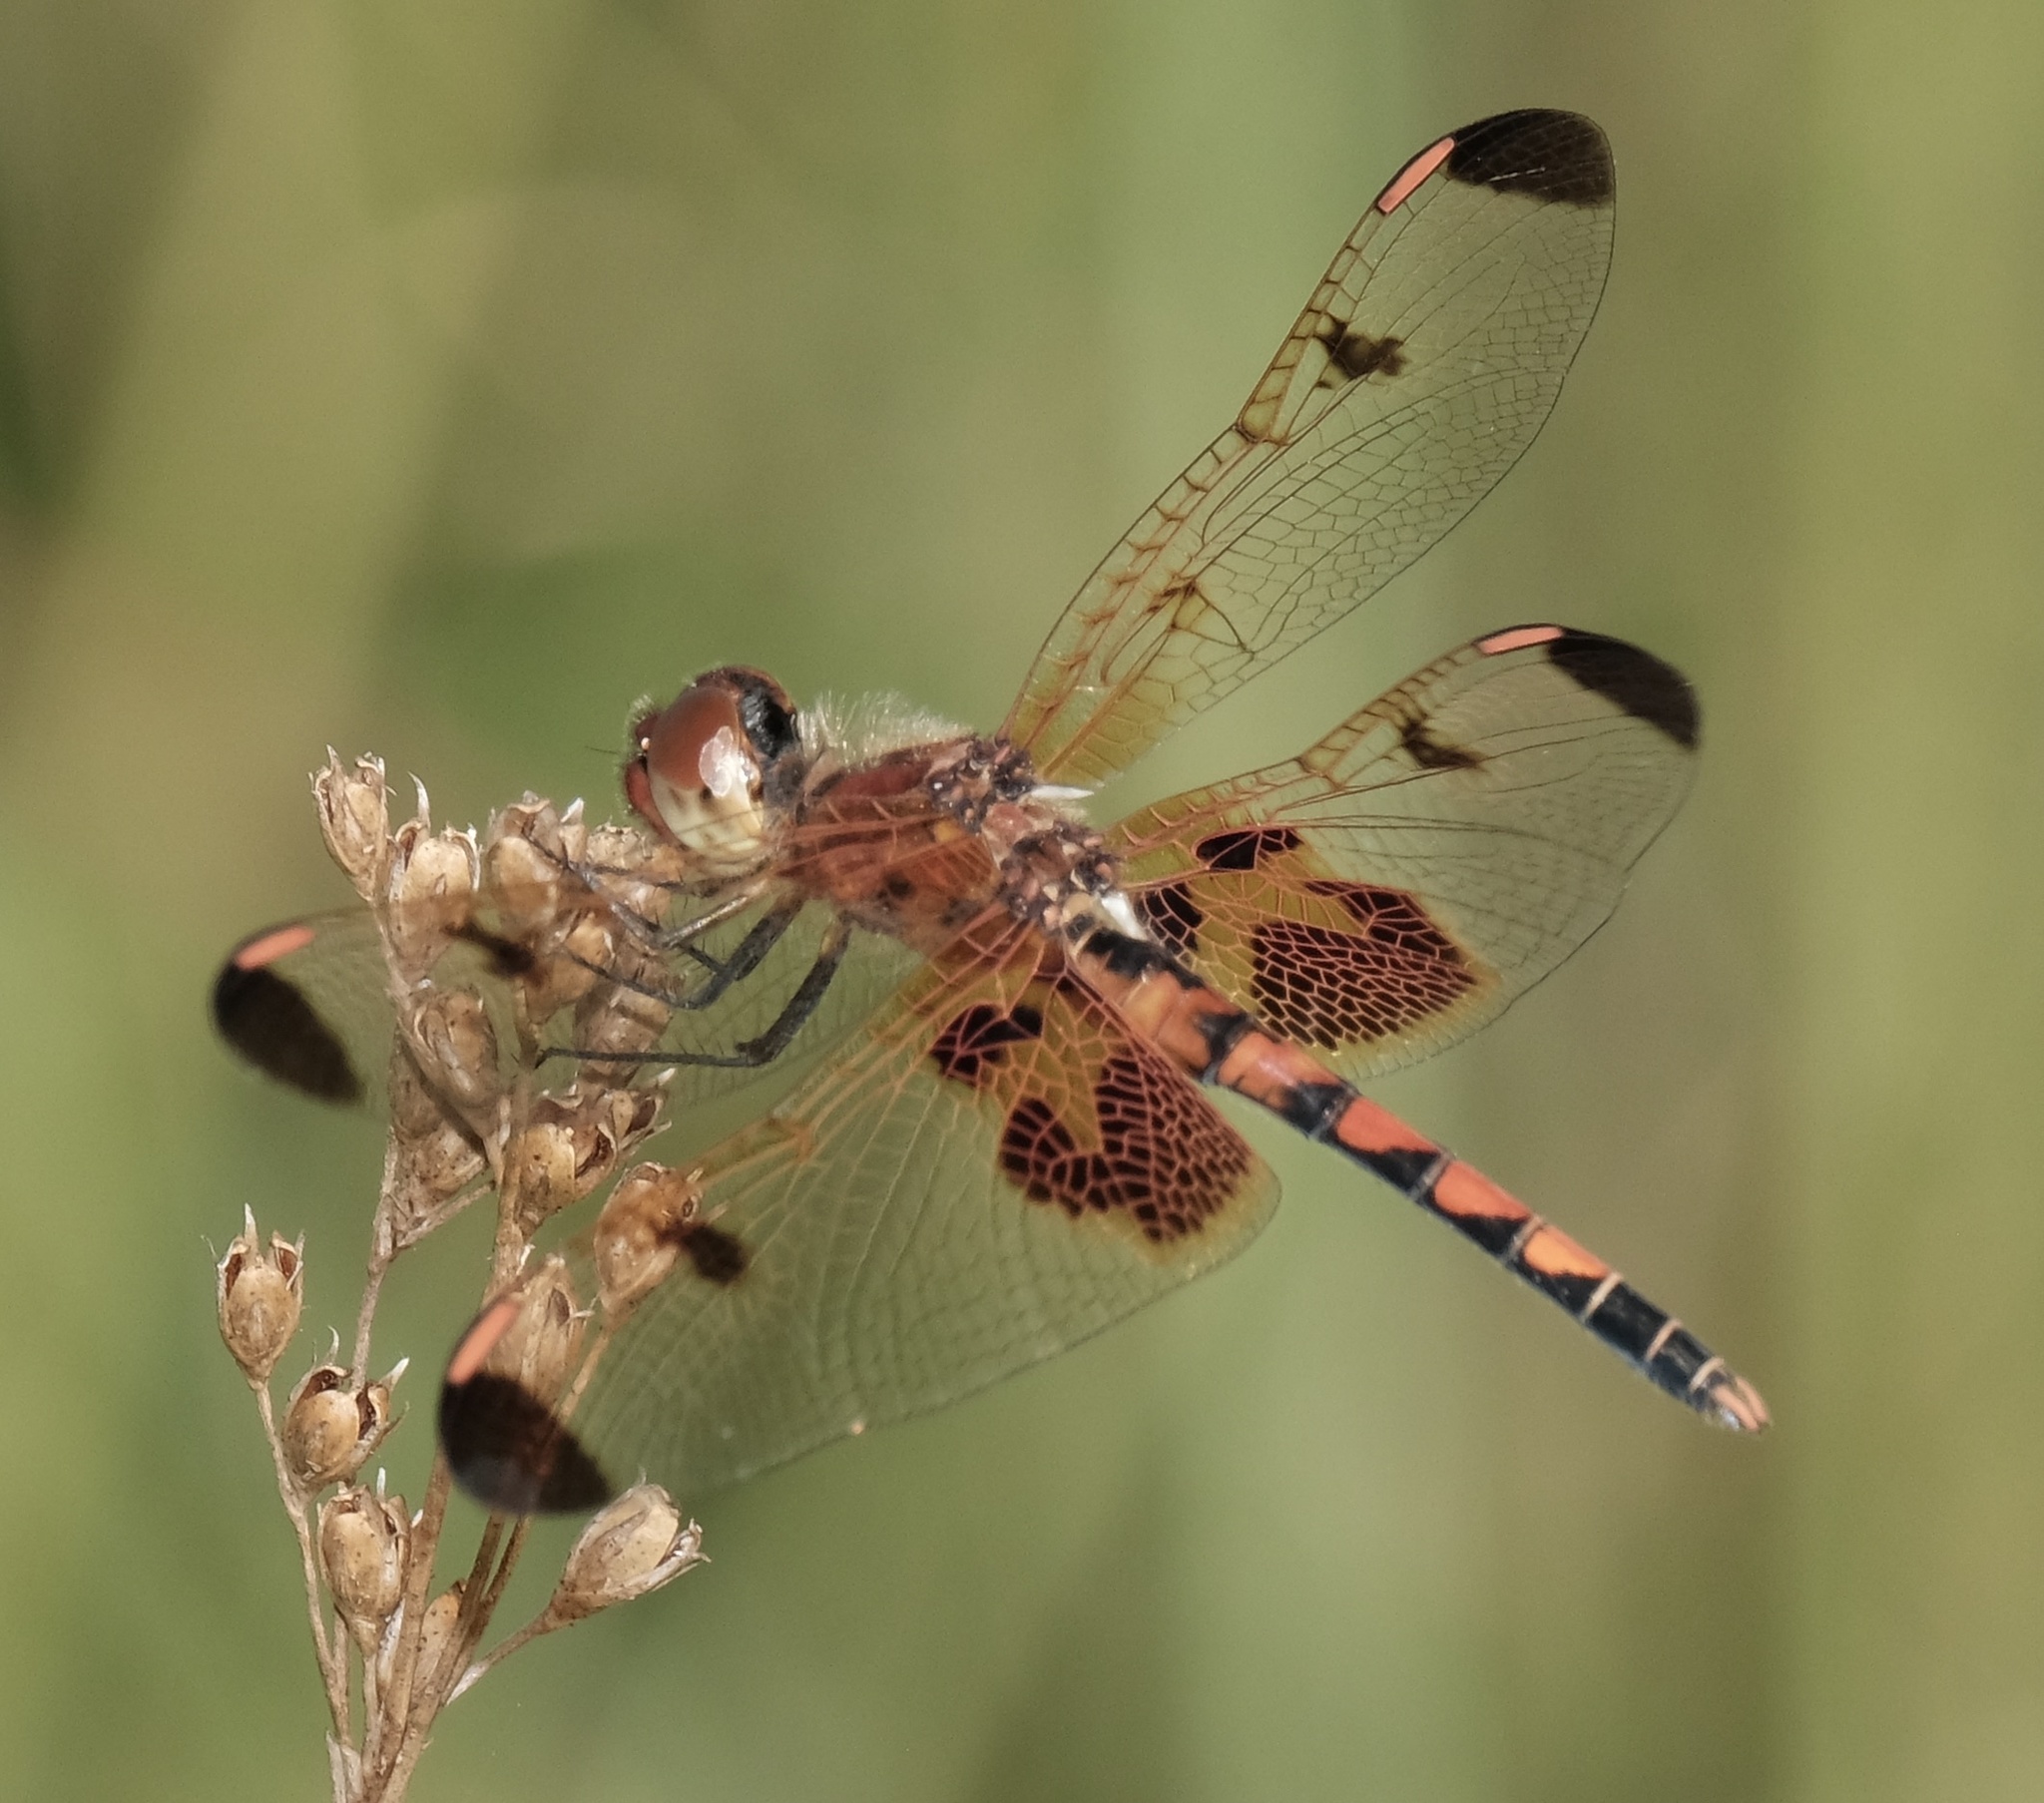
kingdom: Animalia
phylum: Arthropoda
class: Insecta
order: Odonata
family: Libellulidae
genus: Celithemis
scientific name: Celithemis elisa
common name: Calico pennant
